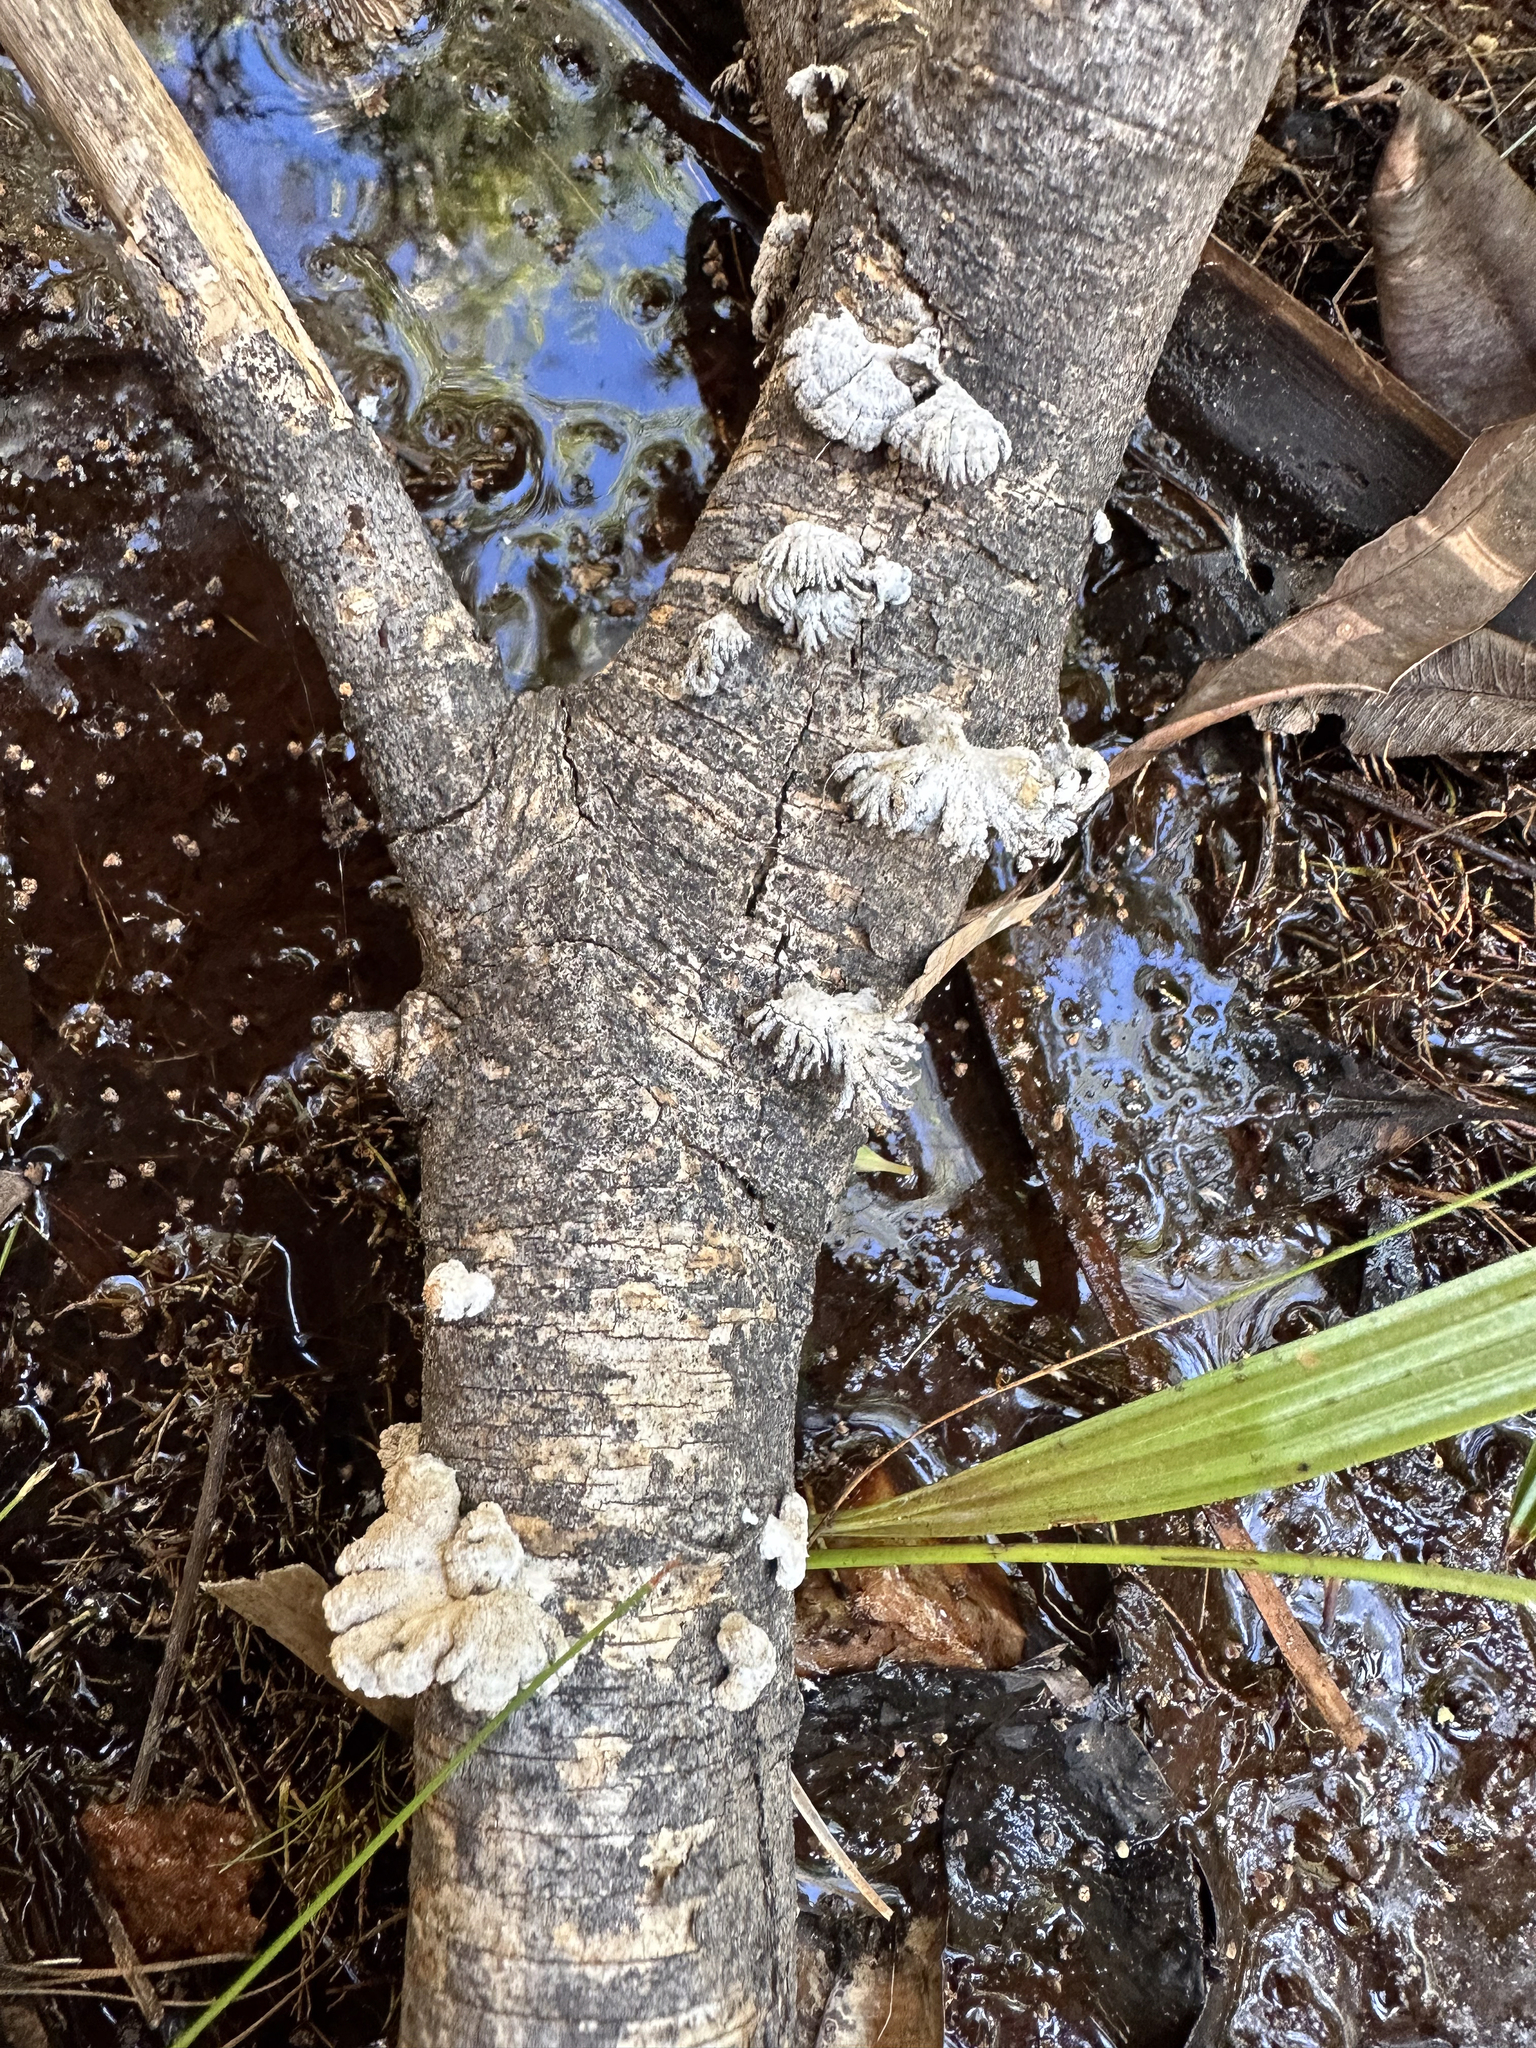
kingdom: Fungi
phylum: Basidiomycota
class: Agaricomycetes
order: Agaricales
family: Schizophyllaceae
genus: Schizophyllum
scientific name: Schizophyllum commune
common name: Common porecrust
